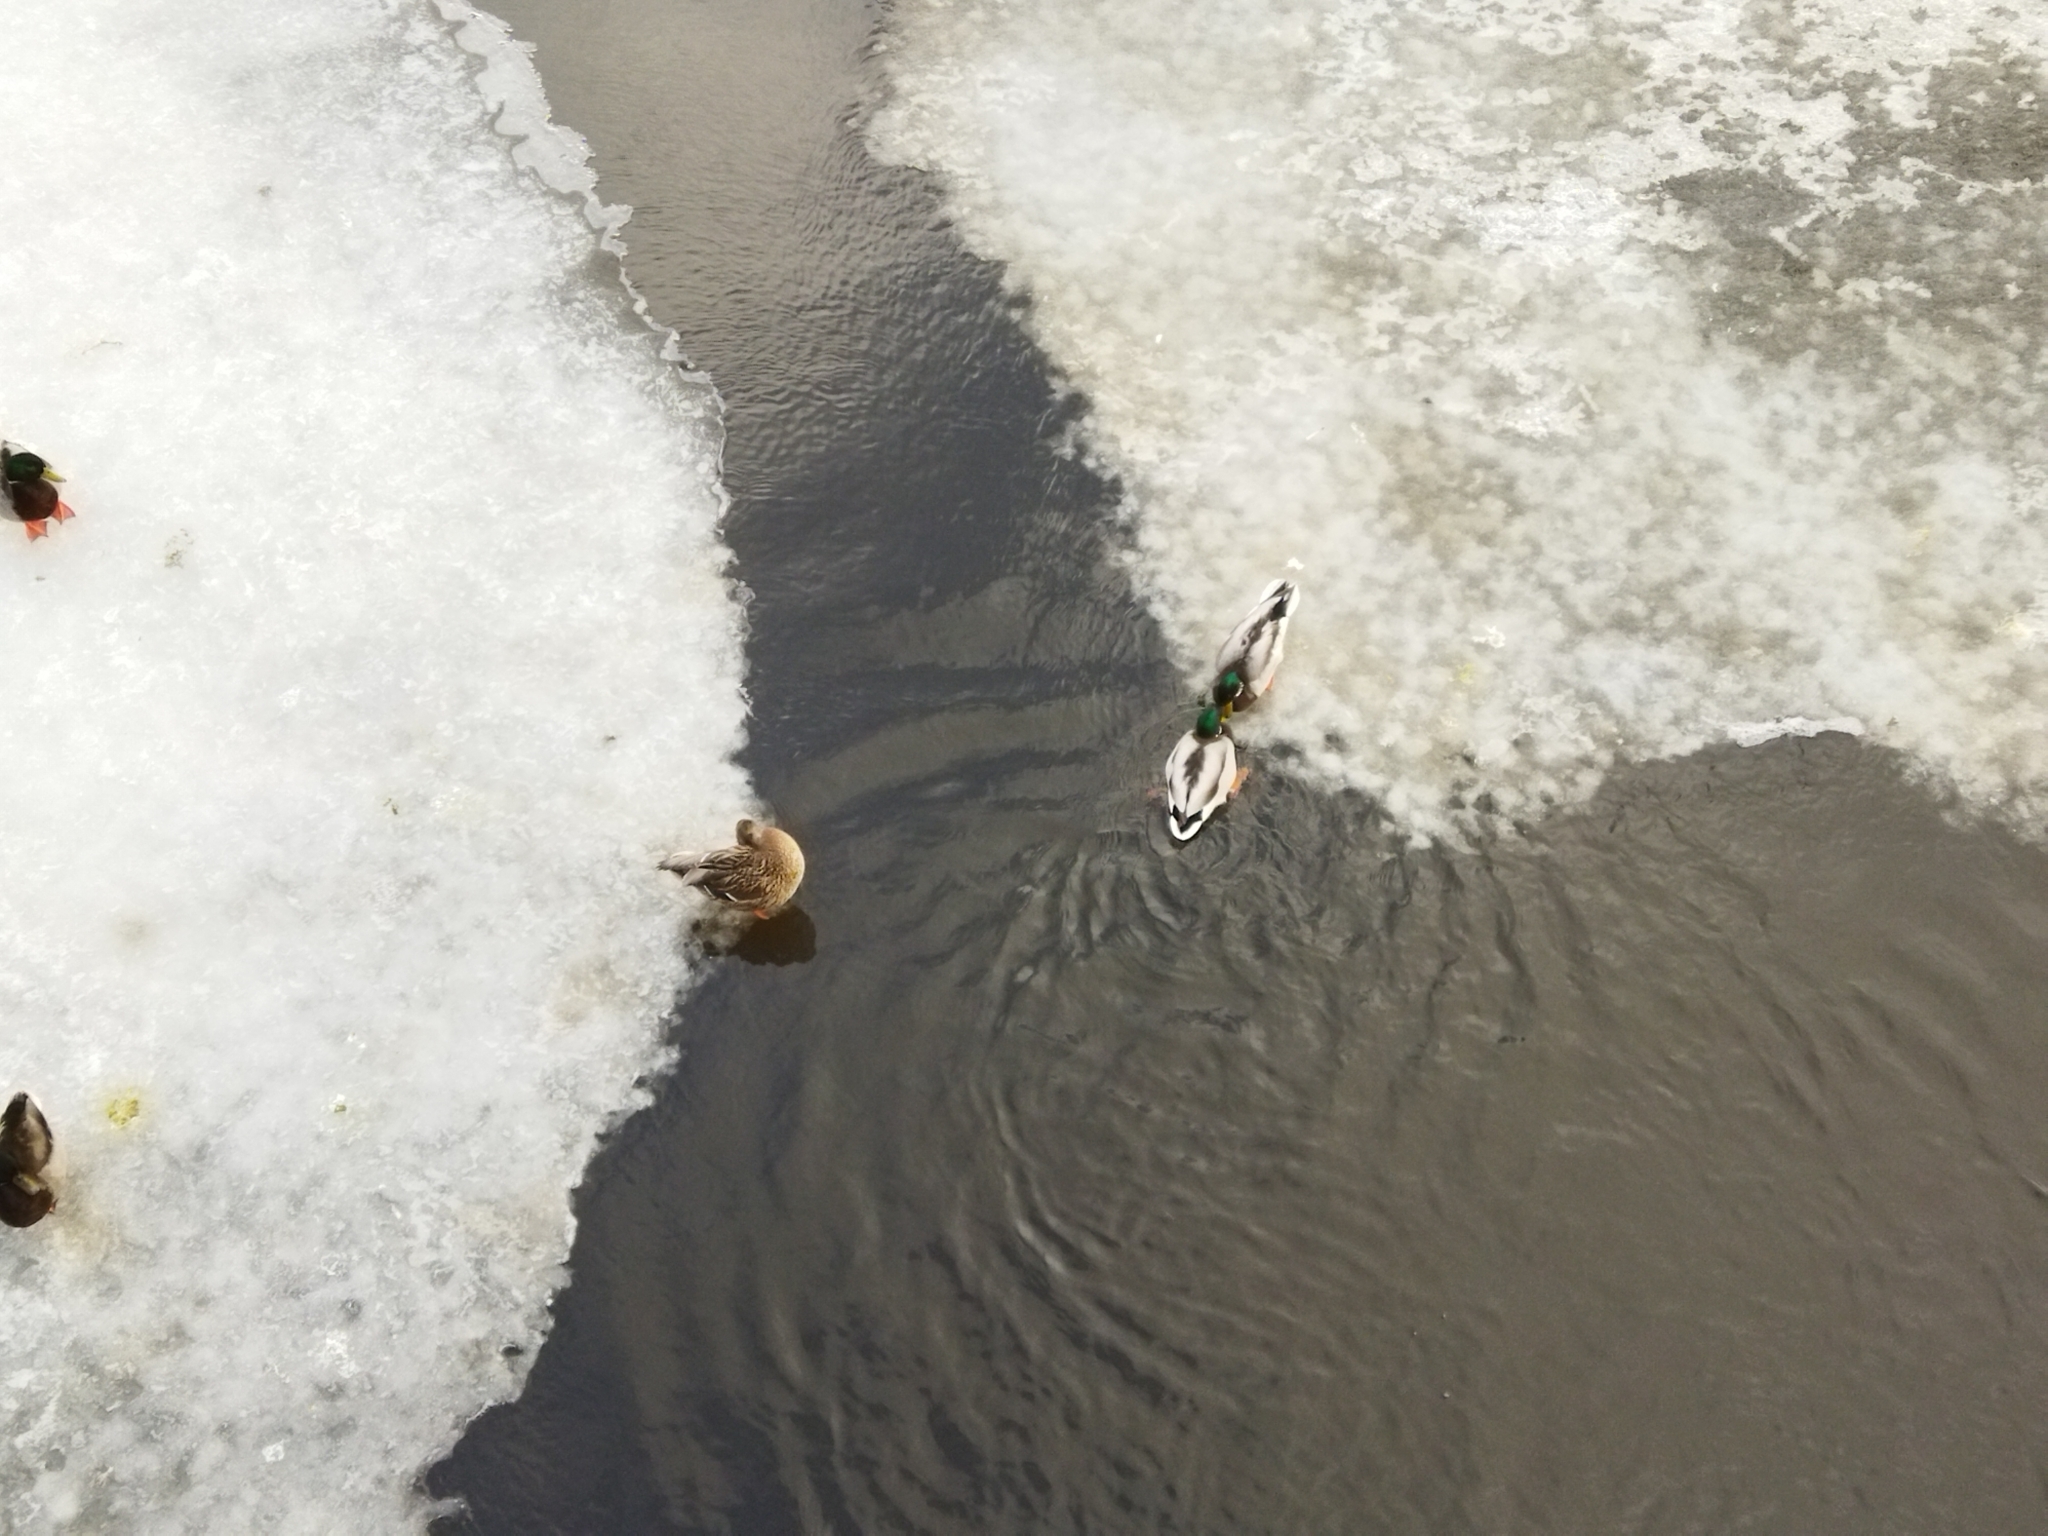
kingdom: Animalia
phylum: Chordata
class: Aves
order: Anseriformes
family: Anatidae
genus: Anas
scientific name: Anas platyrhynchos
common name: Mallard
